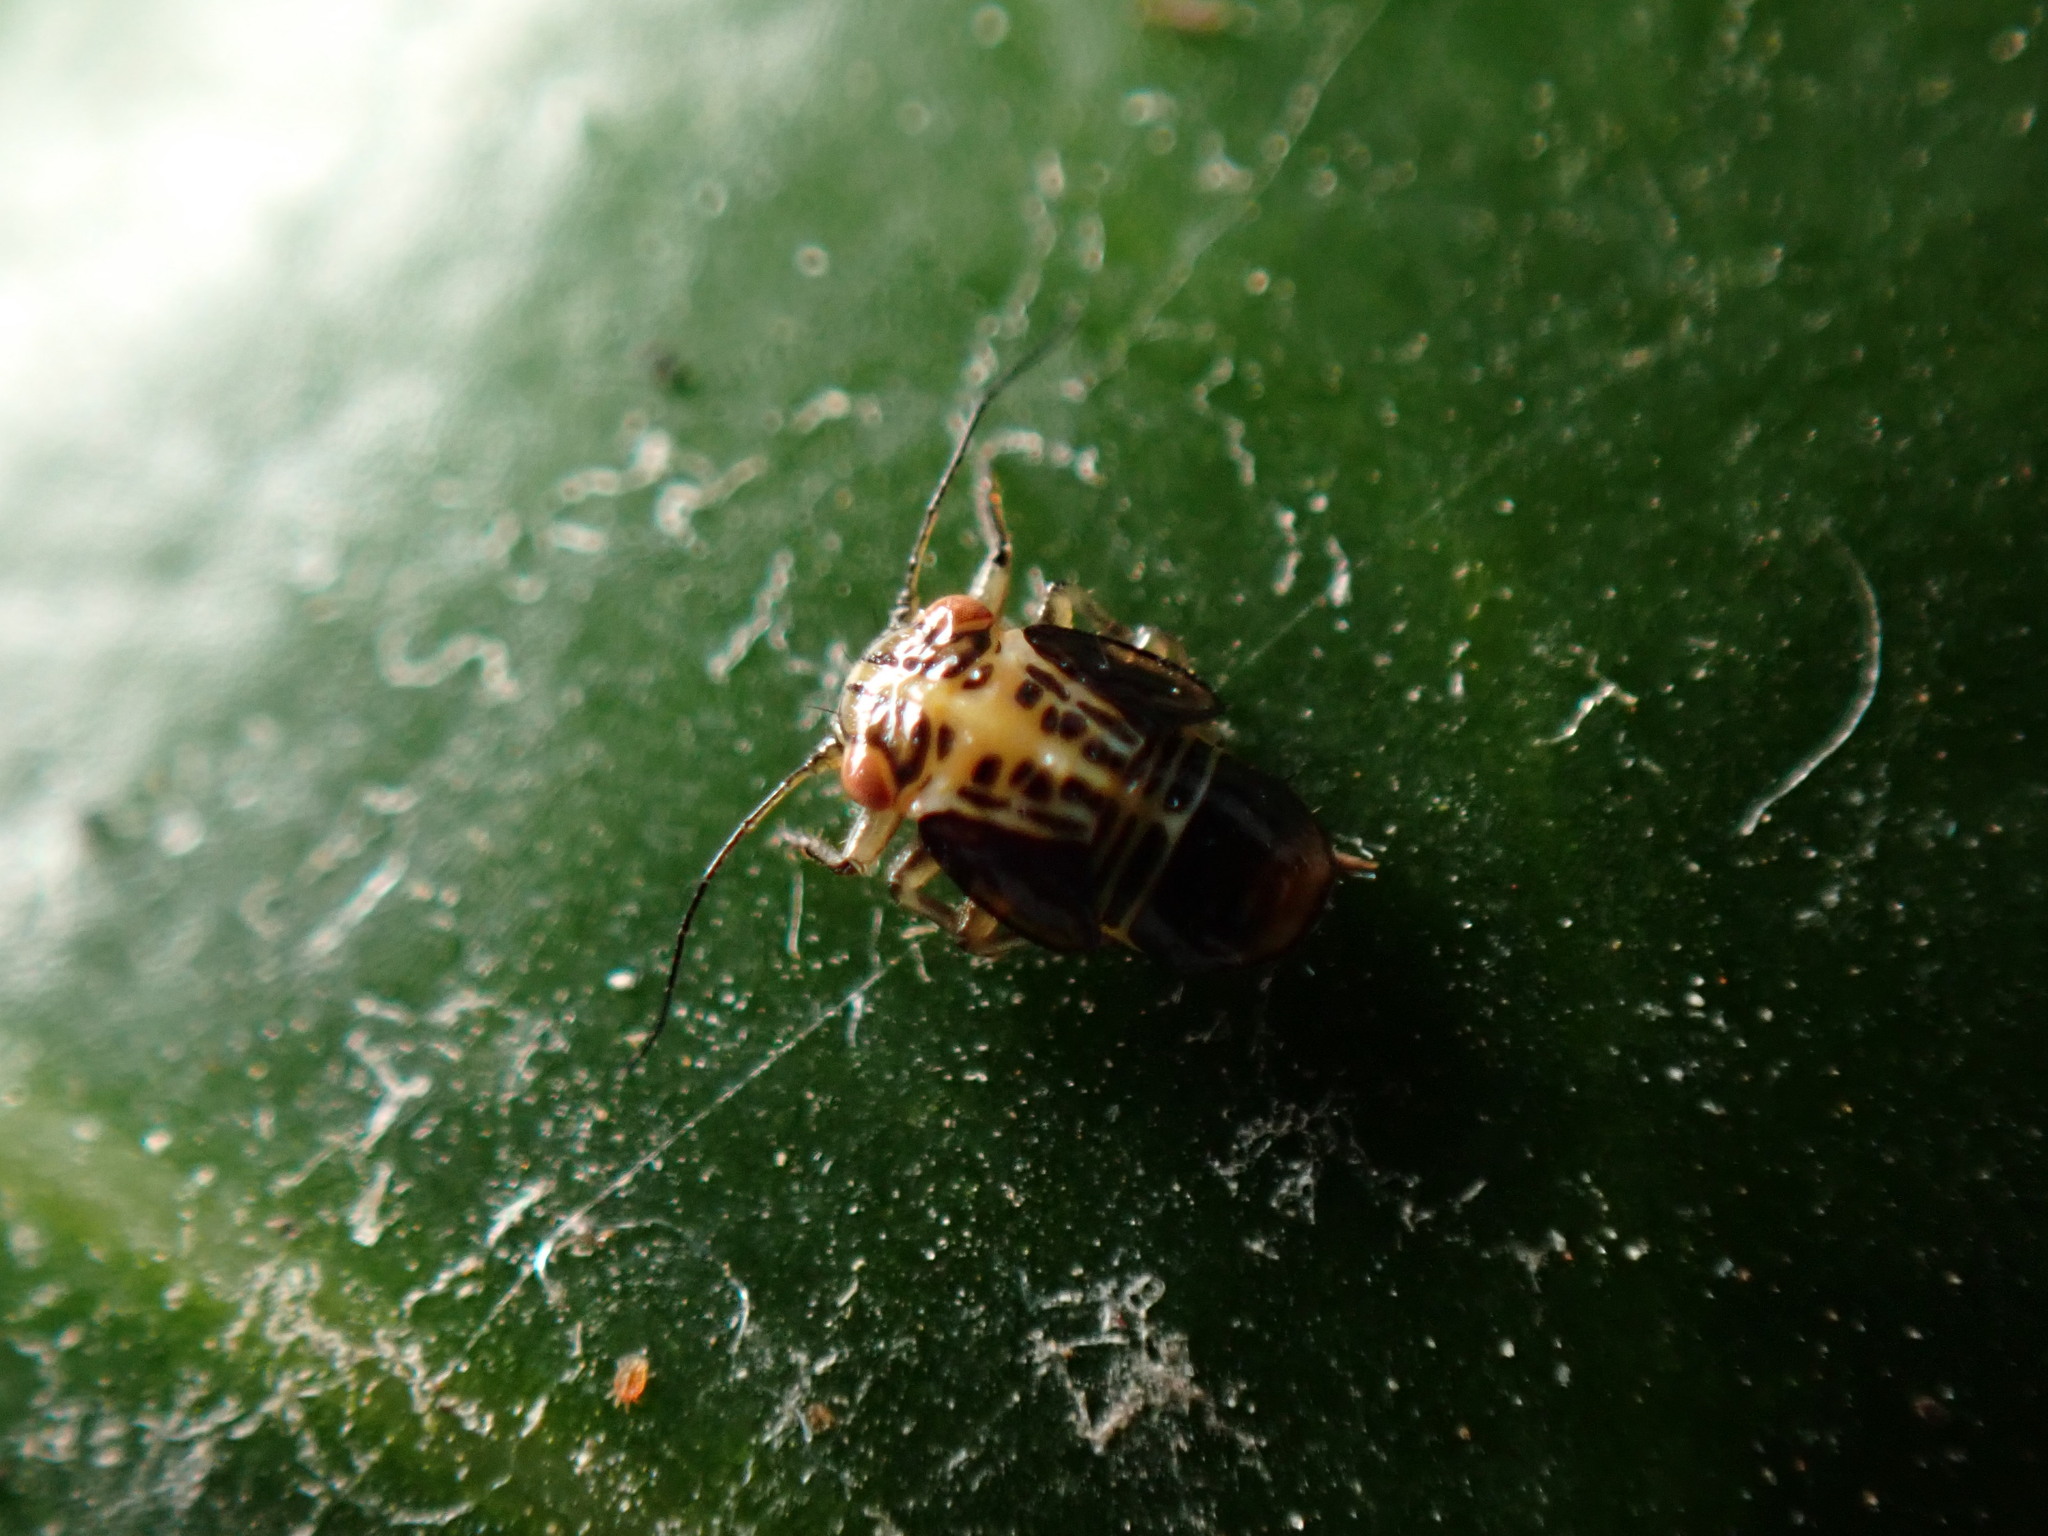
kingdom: Animalia
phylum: Arthropoda
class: Insecta
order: Hemiptera
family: Psyllidae
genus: Platycorypha
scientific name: Platycorypha nigrivirga
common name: Tipu psyllid
